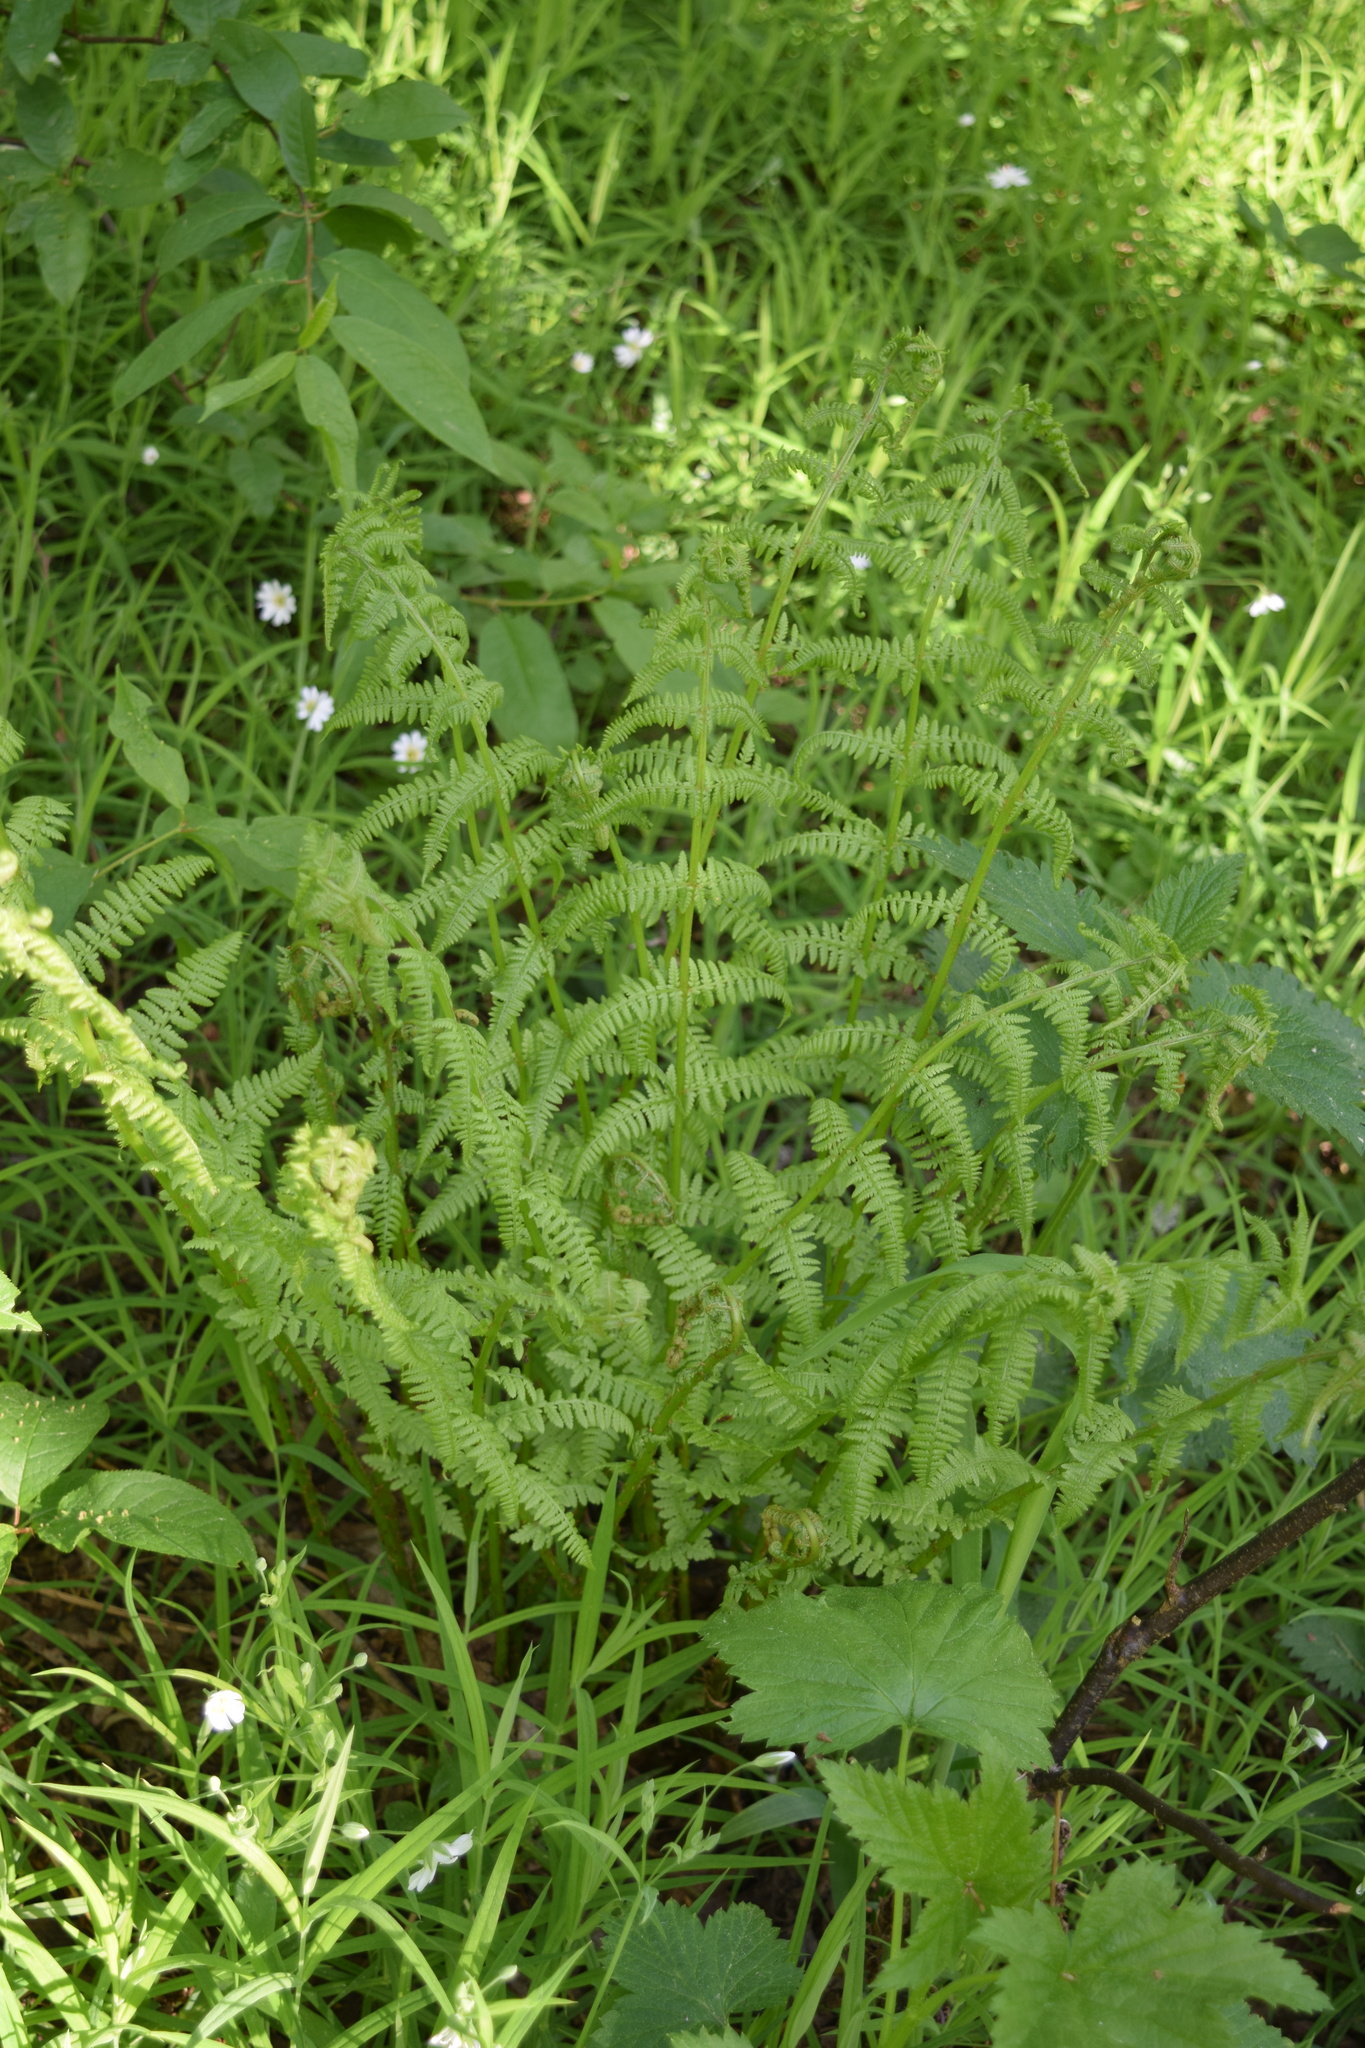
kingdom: Plantae
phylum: Tracheophyta
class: Polypodiopsida
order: Polypodiales
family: Athyriaceae
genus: Athyrium
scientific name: Athyrium filix-femina
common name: Lady fern
